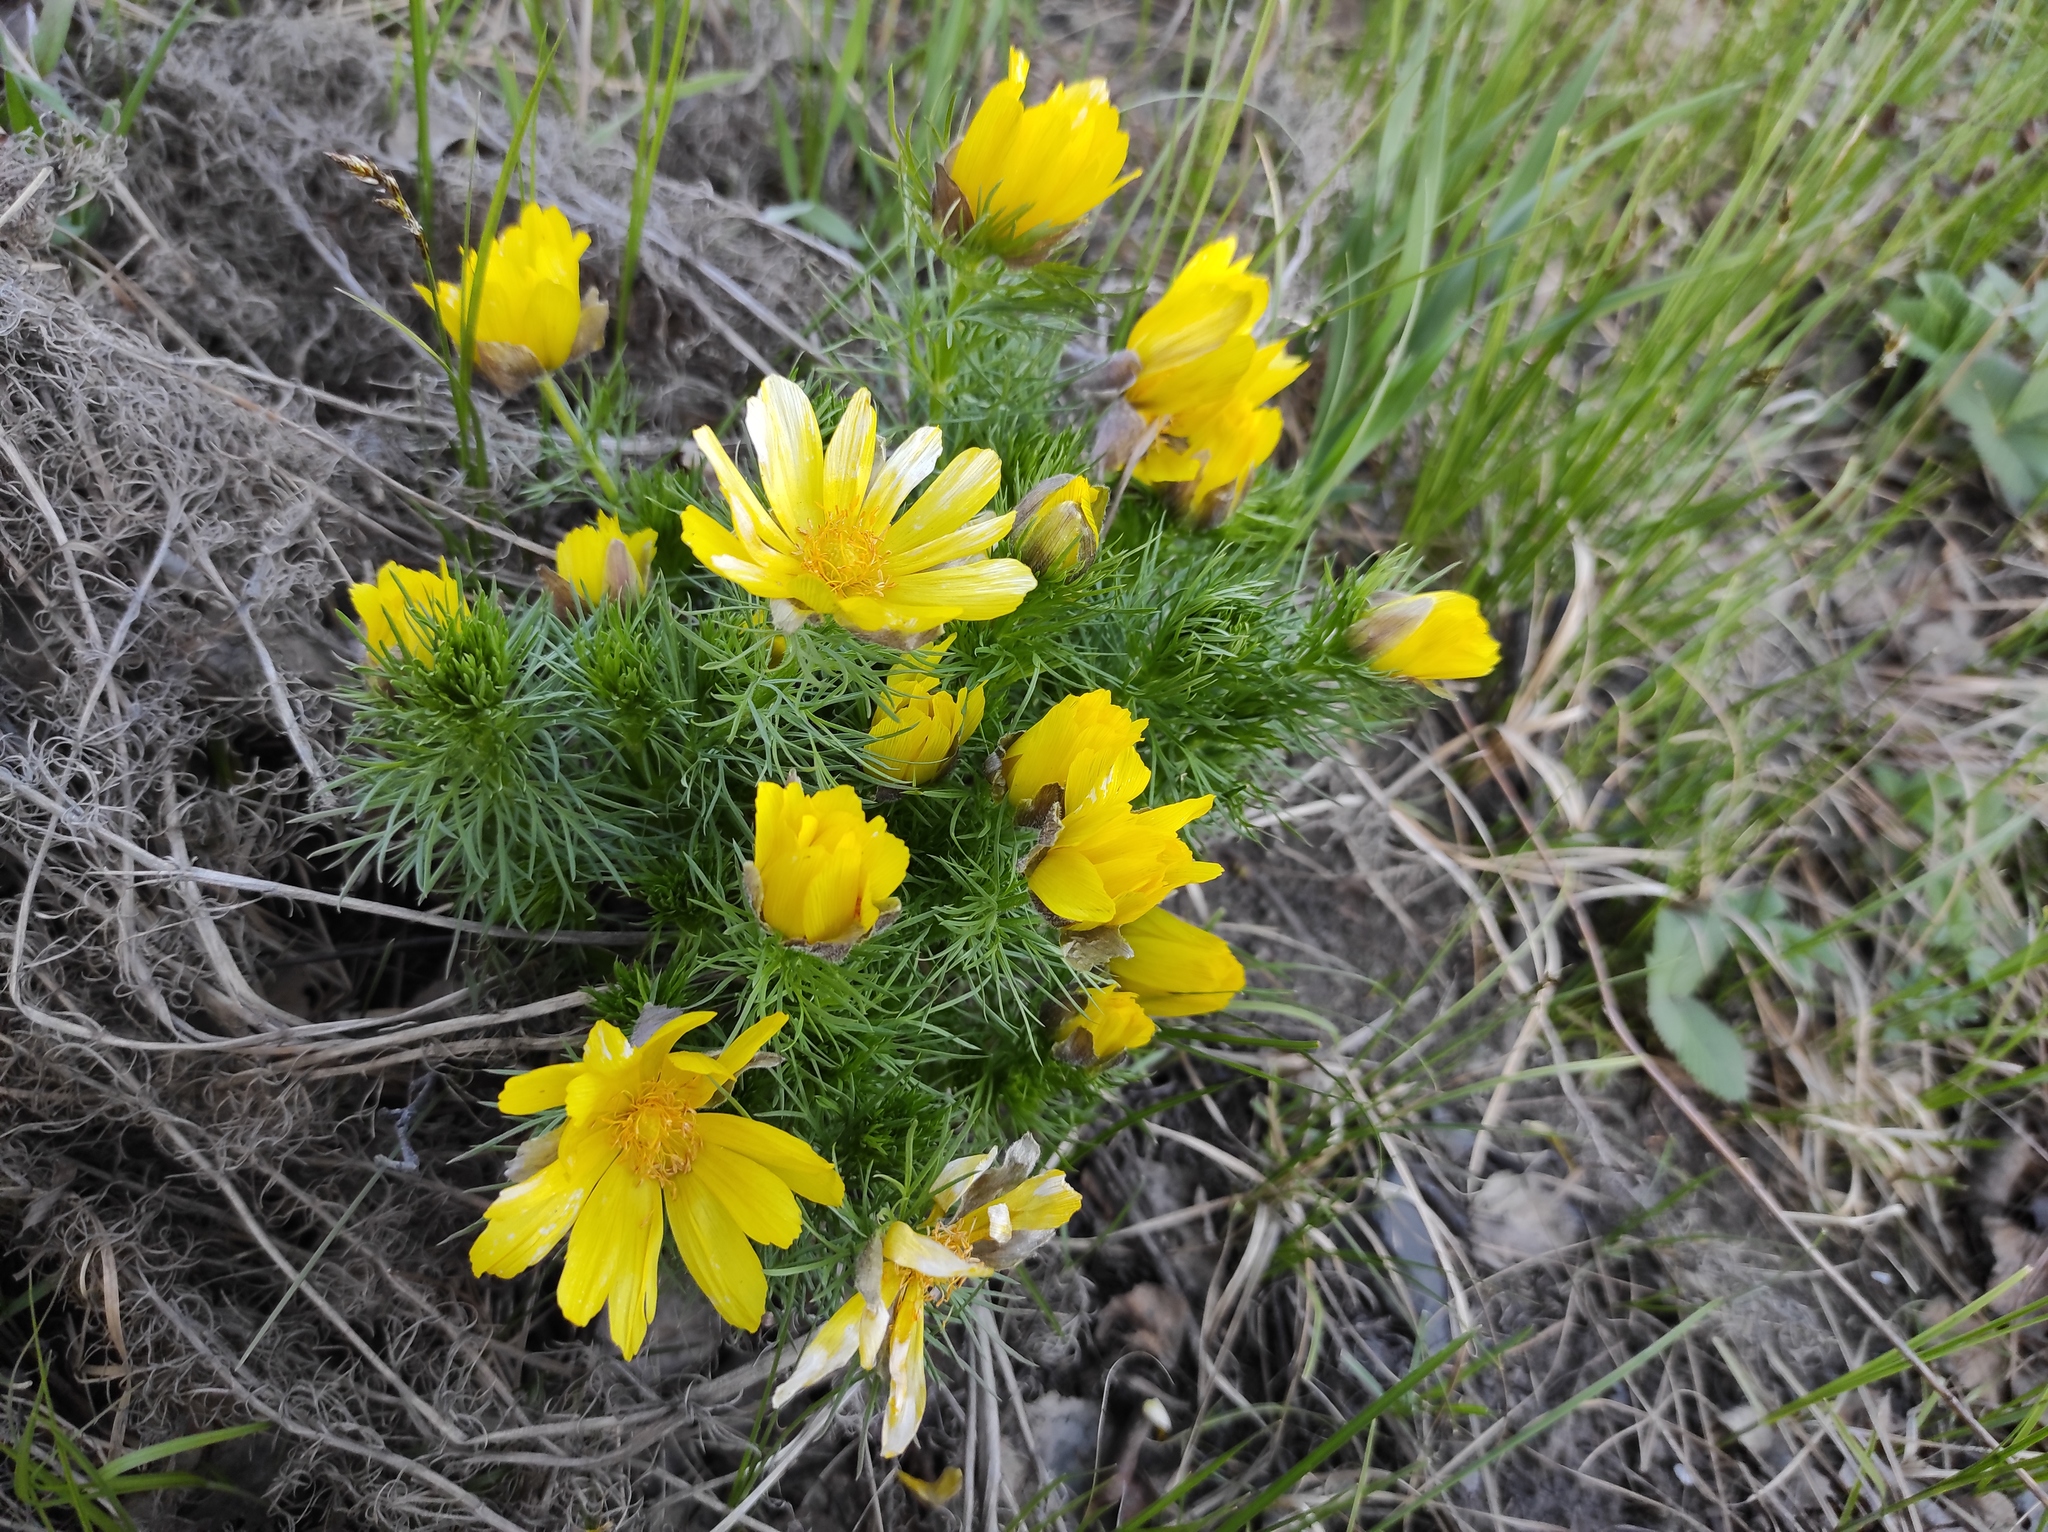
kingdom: Plantae
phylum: Tracheophyta
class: Magnoliopsida
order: Ranunculales
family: Ranunculaceae
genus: Adonis
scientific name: Adonis vernalis
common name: Yellow pheasants-eye
